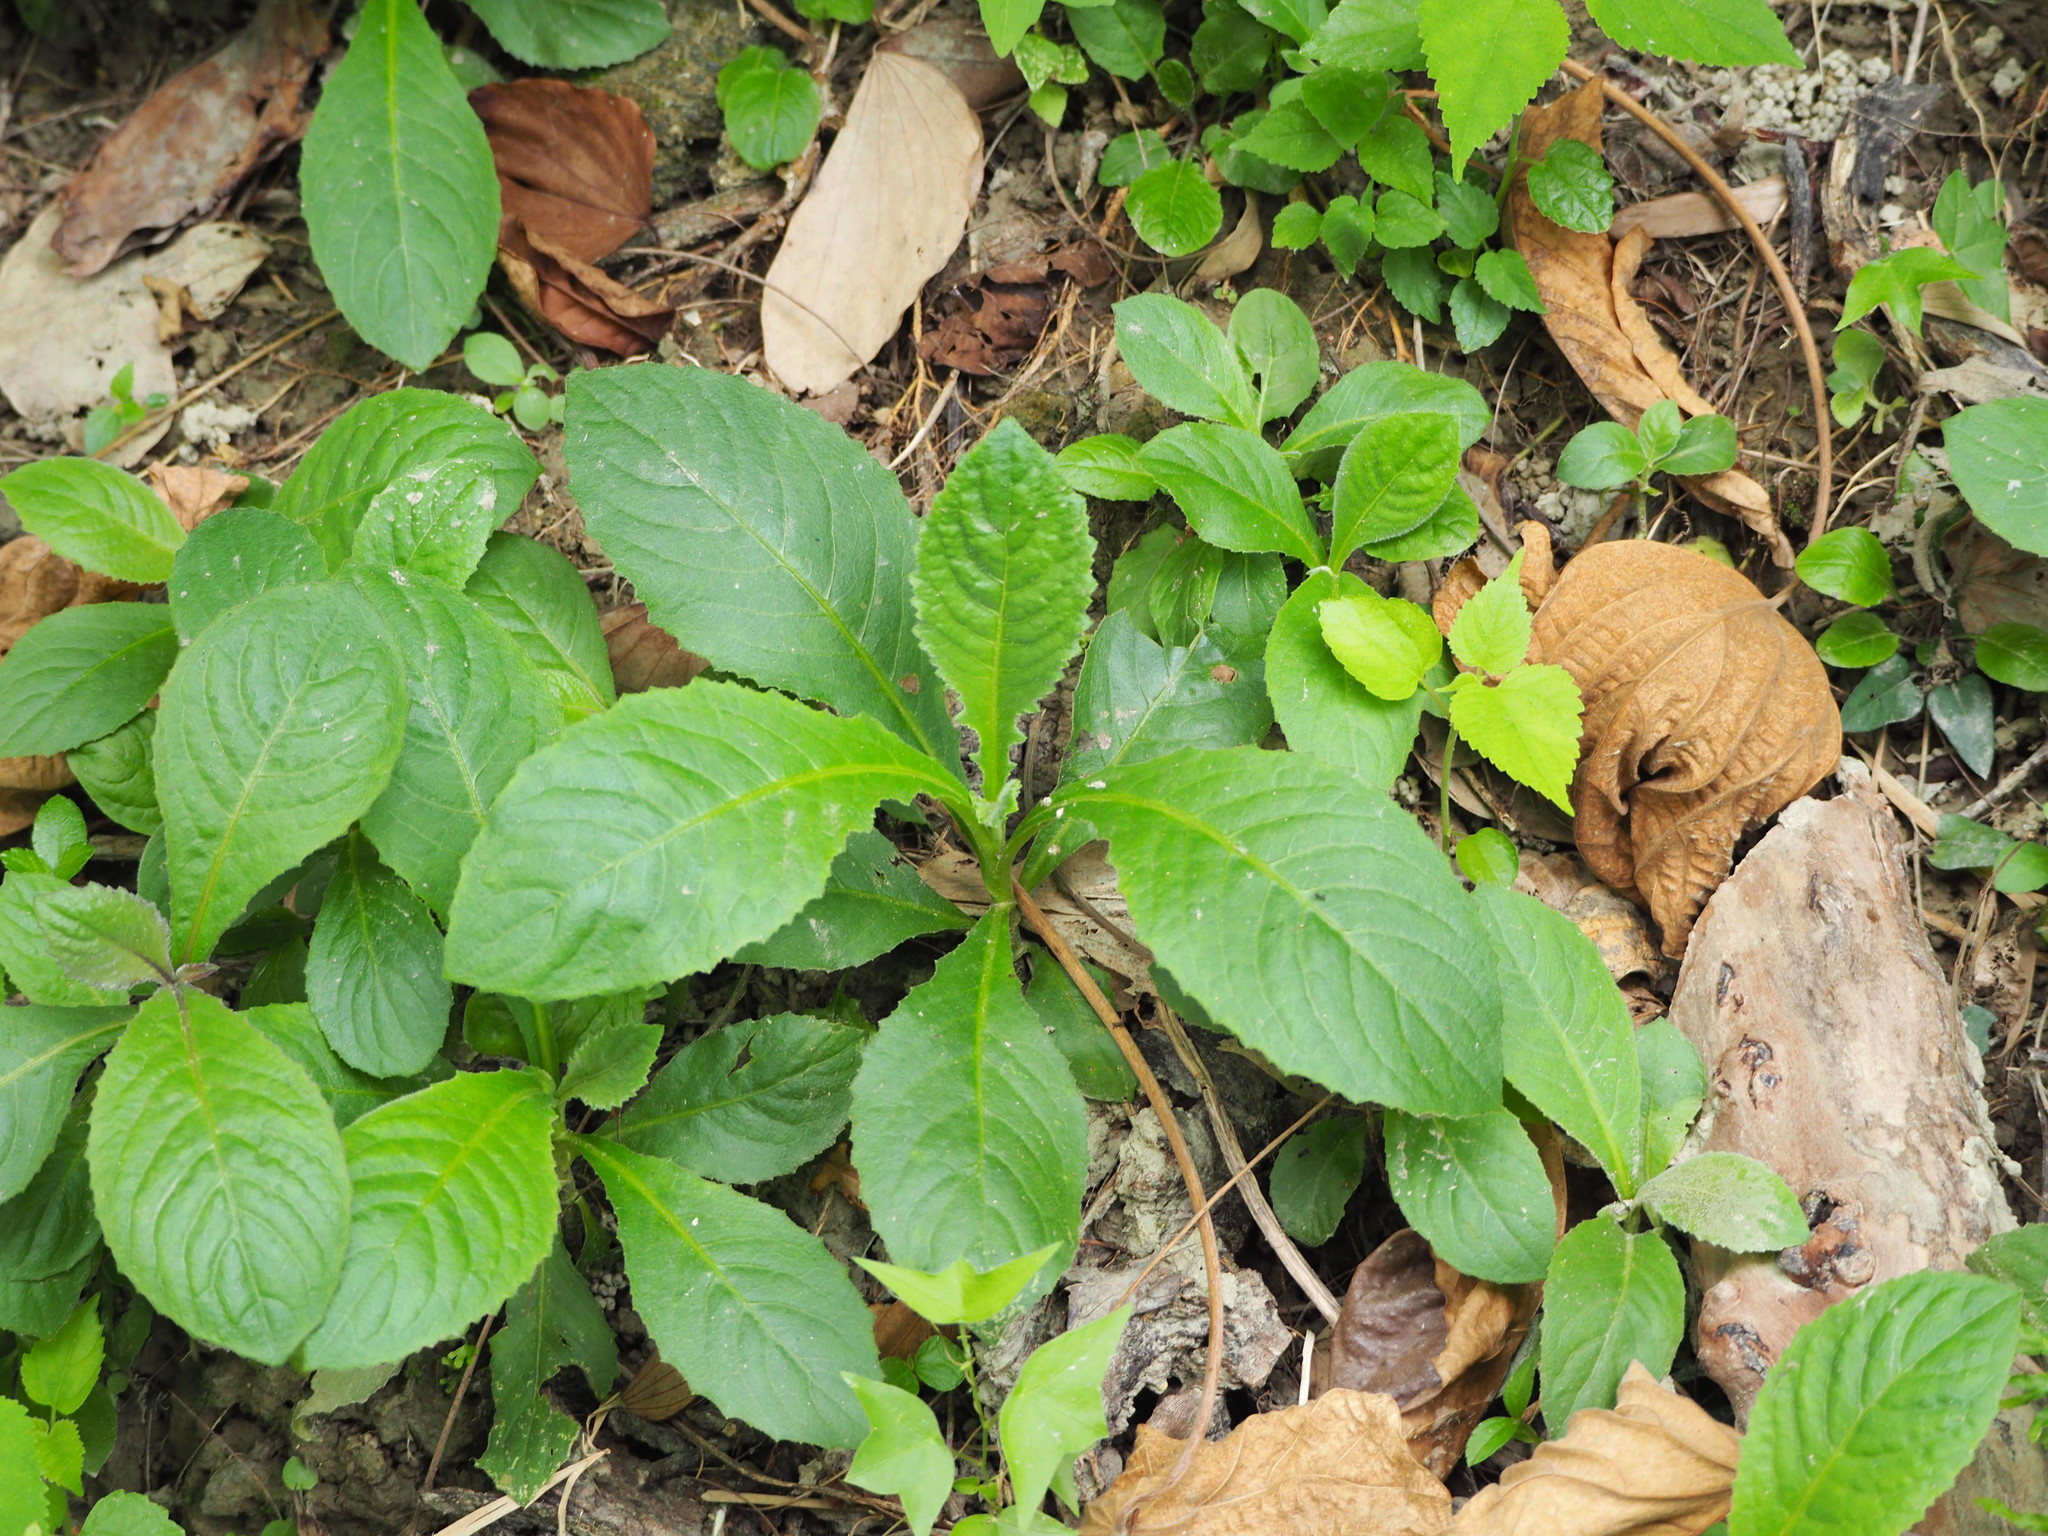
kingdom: Plantae
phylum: Tracheophyta
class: Magnoliopsida
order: Asterales
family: Asteraceae
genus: Elephantopus
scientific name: Elephantopus mollis
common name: Soft elephantsfoot
